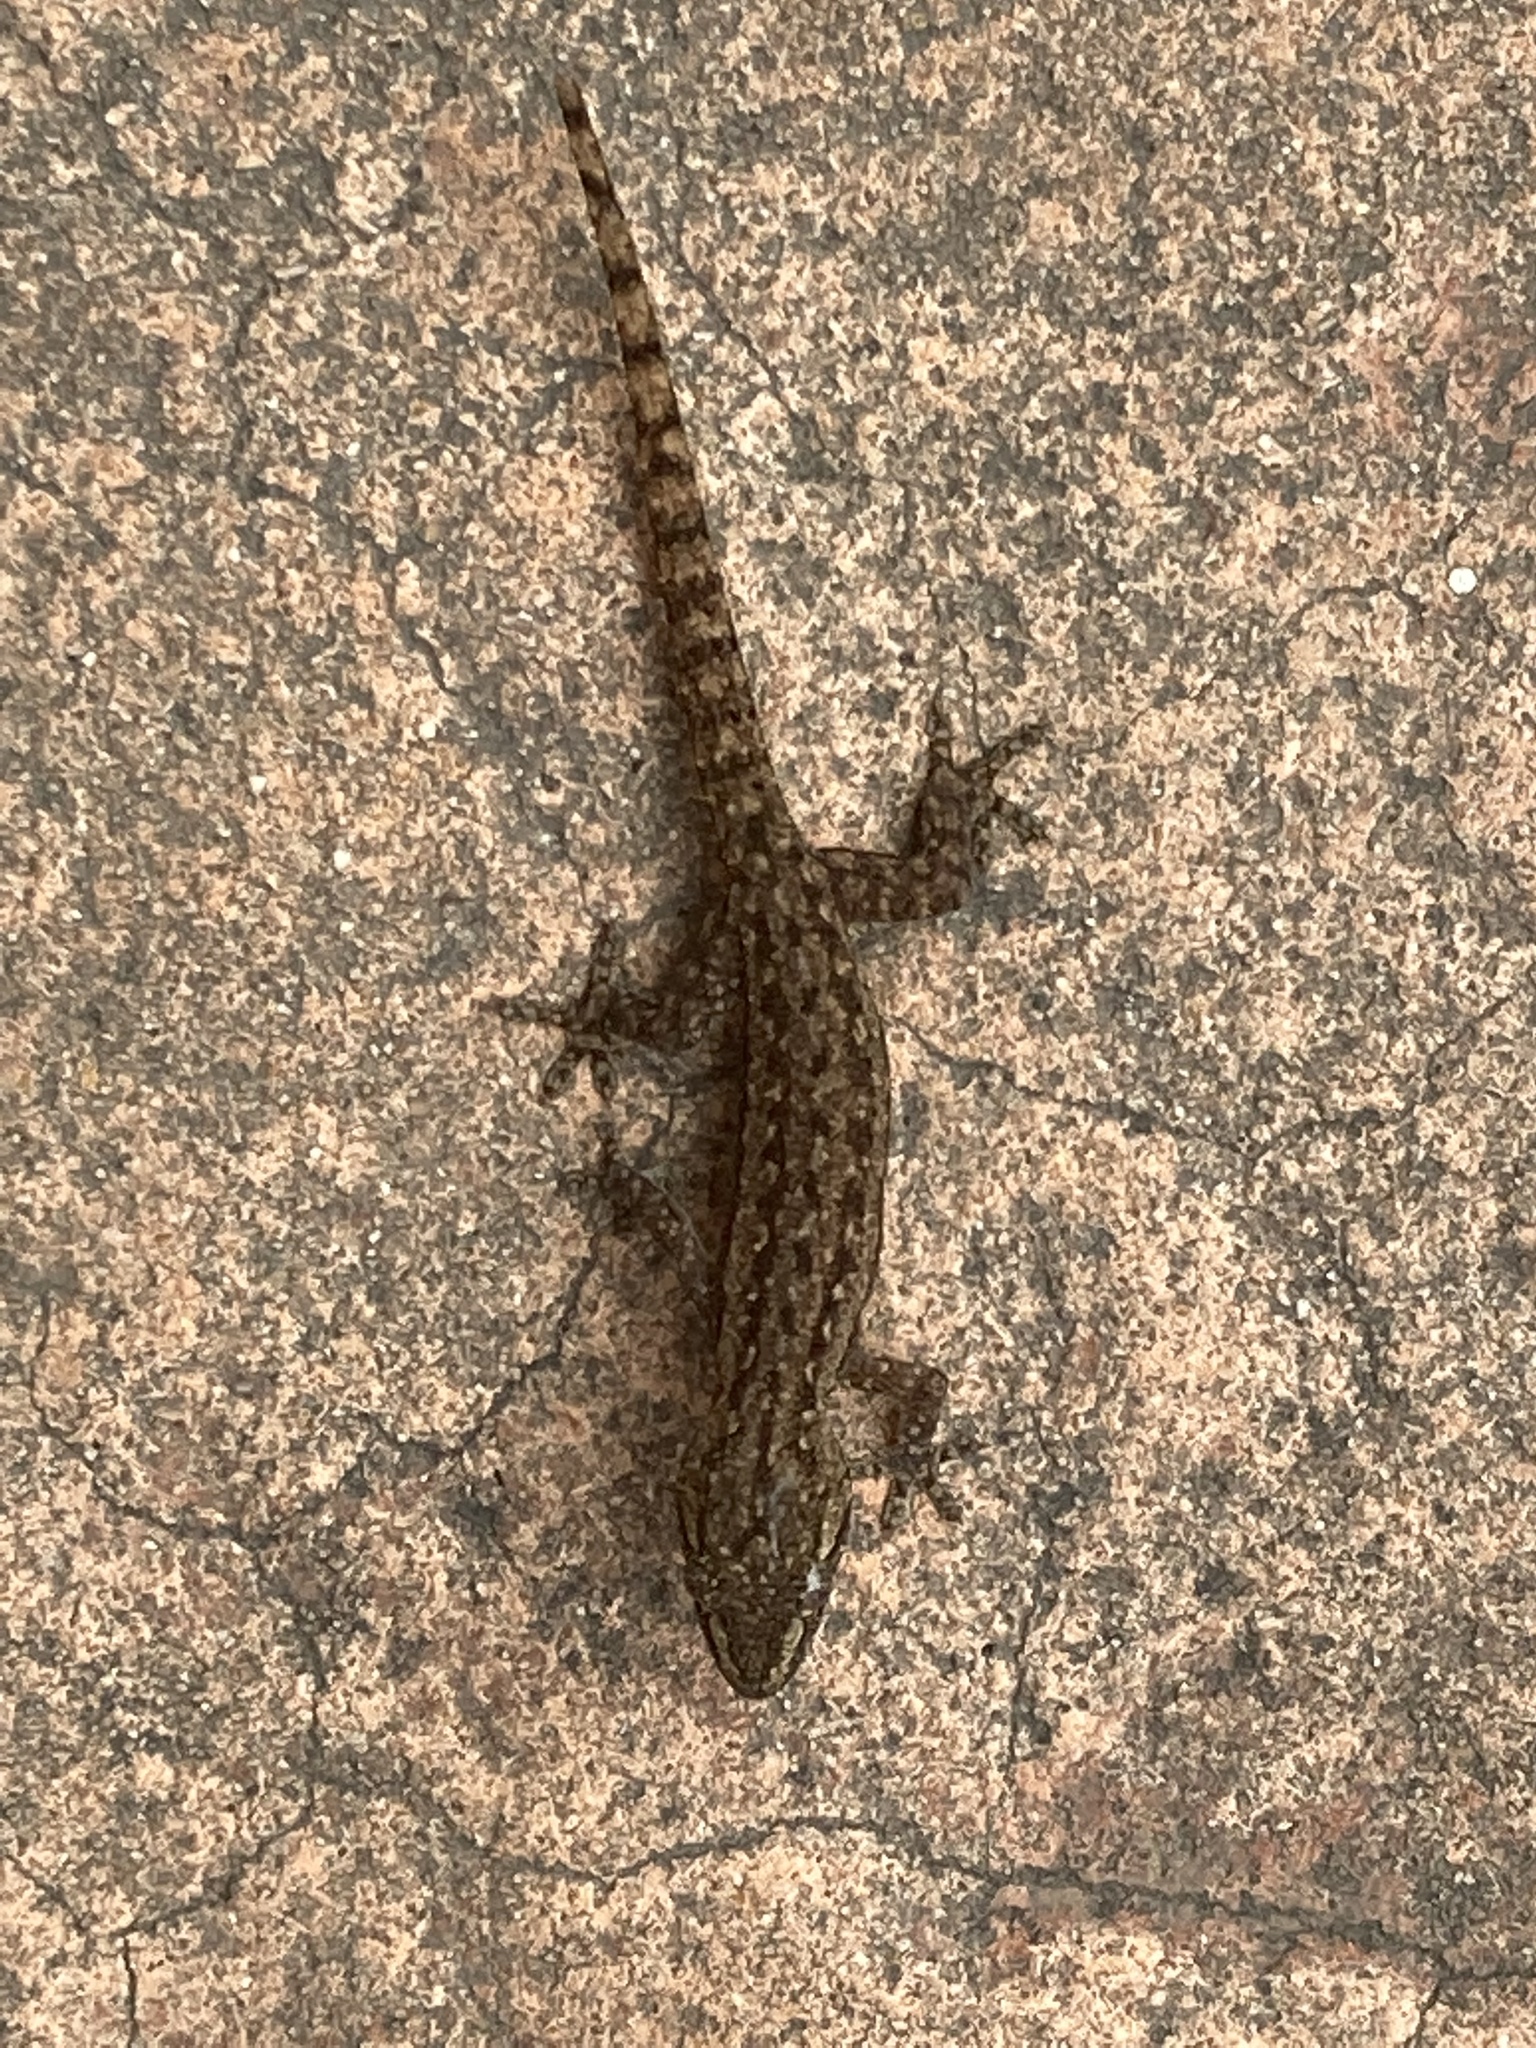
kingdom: Animalia
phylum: Chordata
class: Squamata
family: Gekkonidae
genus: Hemidactylus
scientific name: Hemidactylus frenatus
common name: Common house gecko
